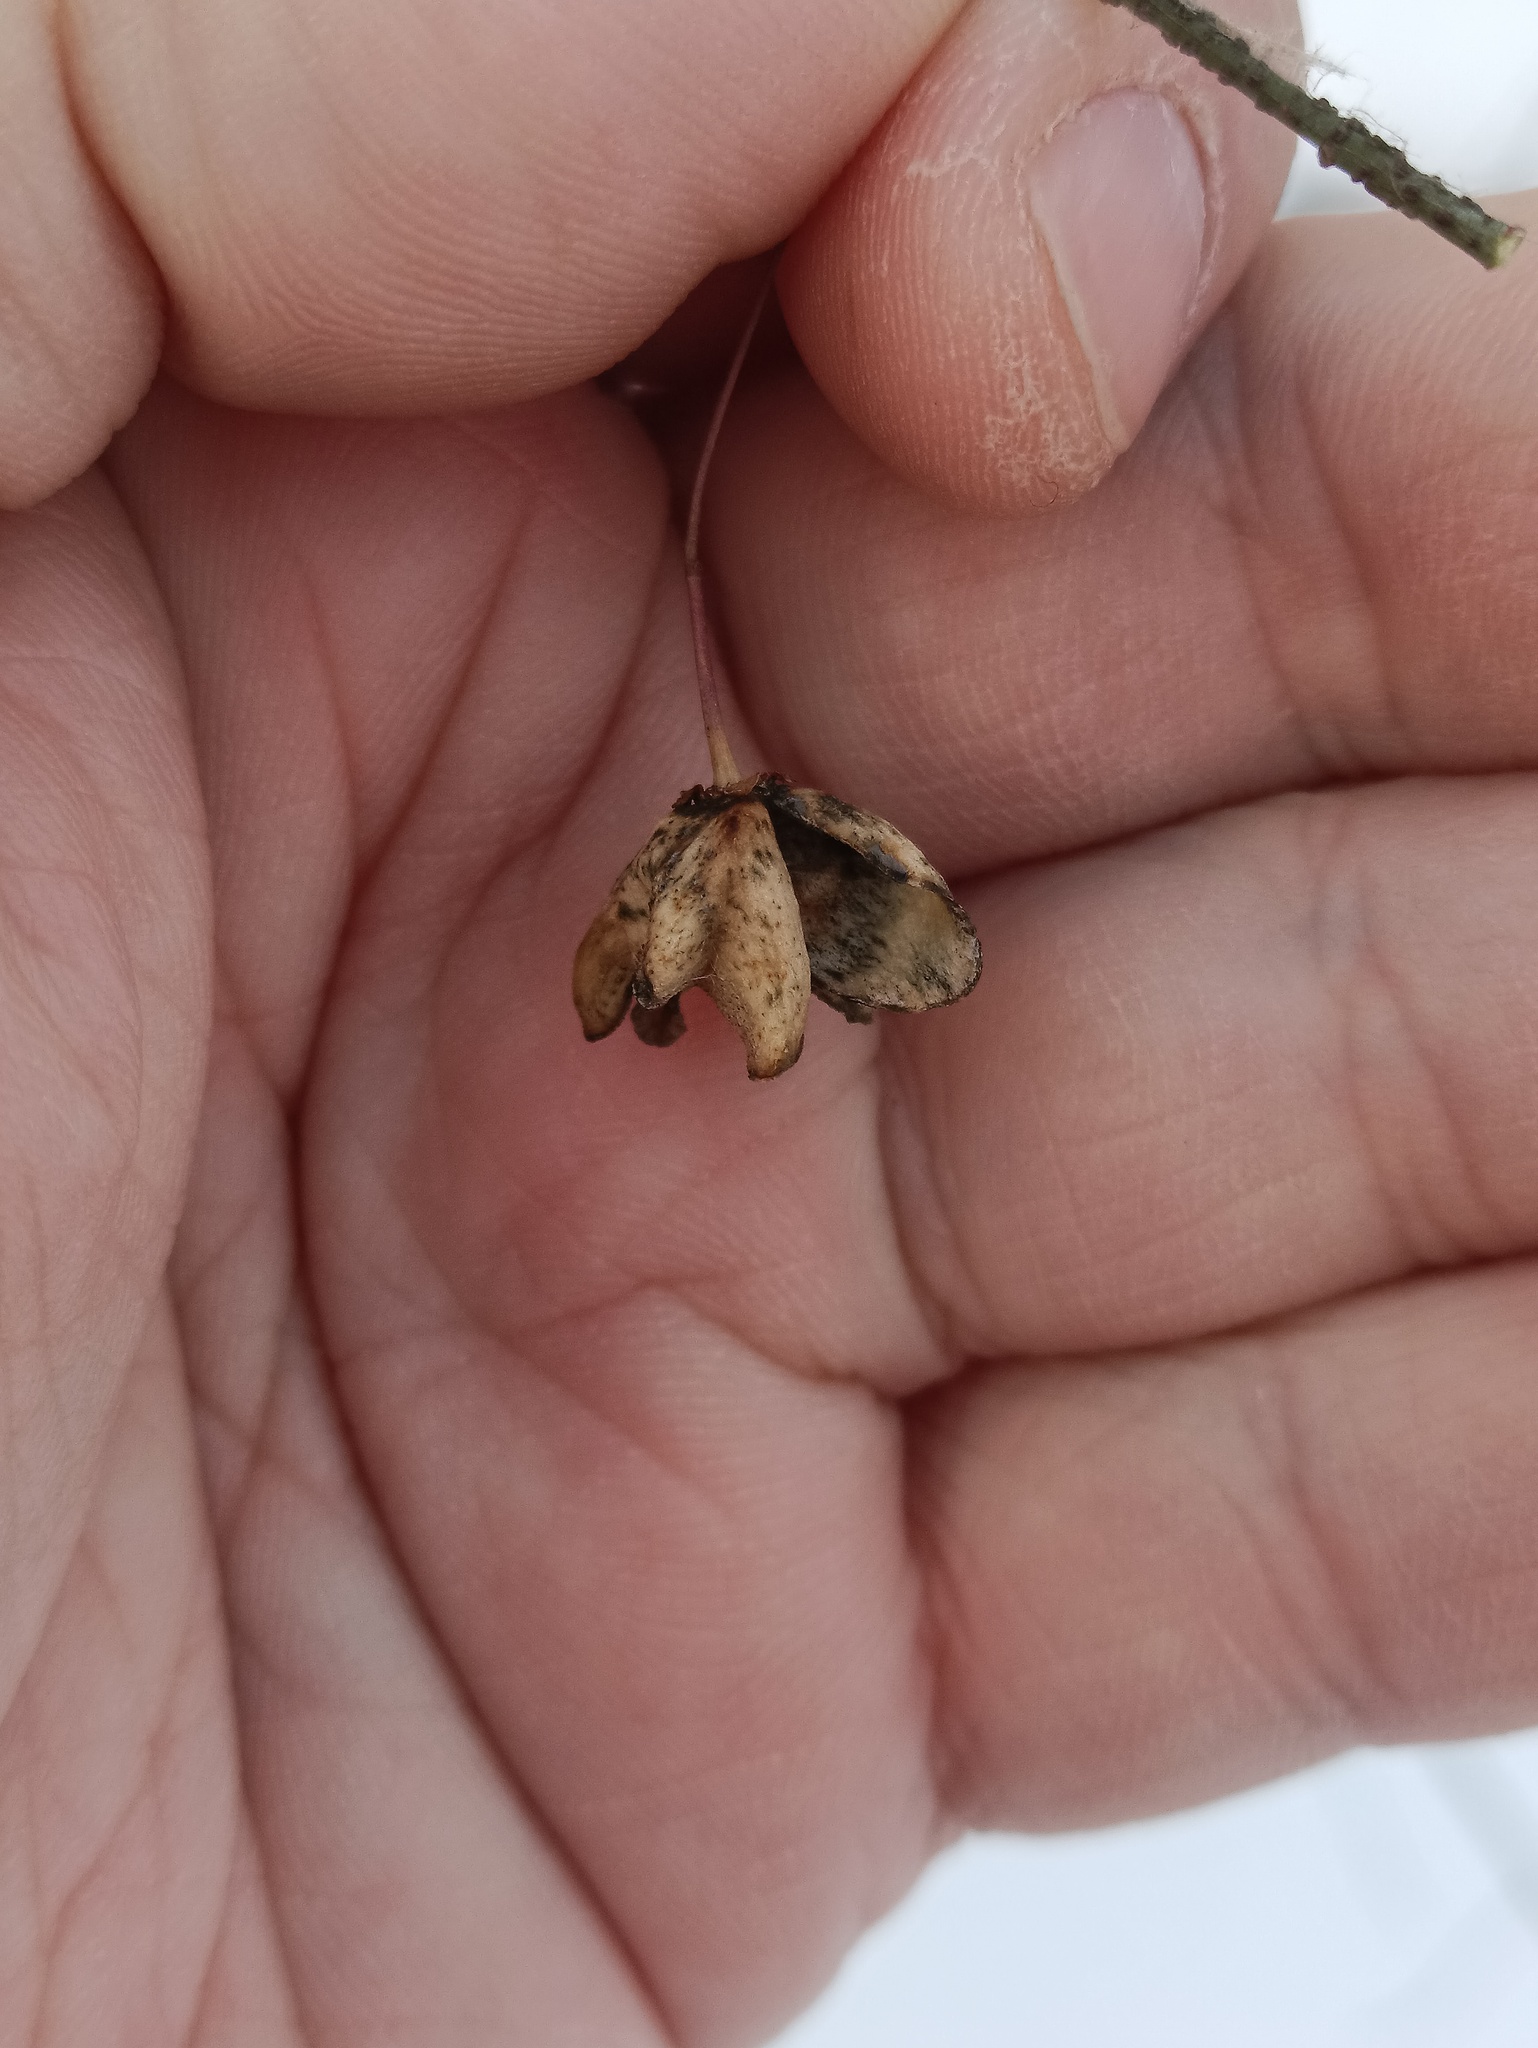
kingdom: Plantae
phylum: Tracheophyta
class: Magnoliopsida
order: Celastrales
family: Celastraceae
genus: Euonymus
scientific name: Euonymus verrucosus
